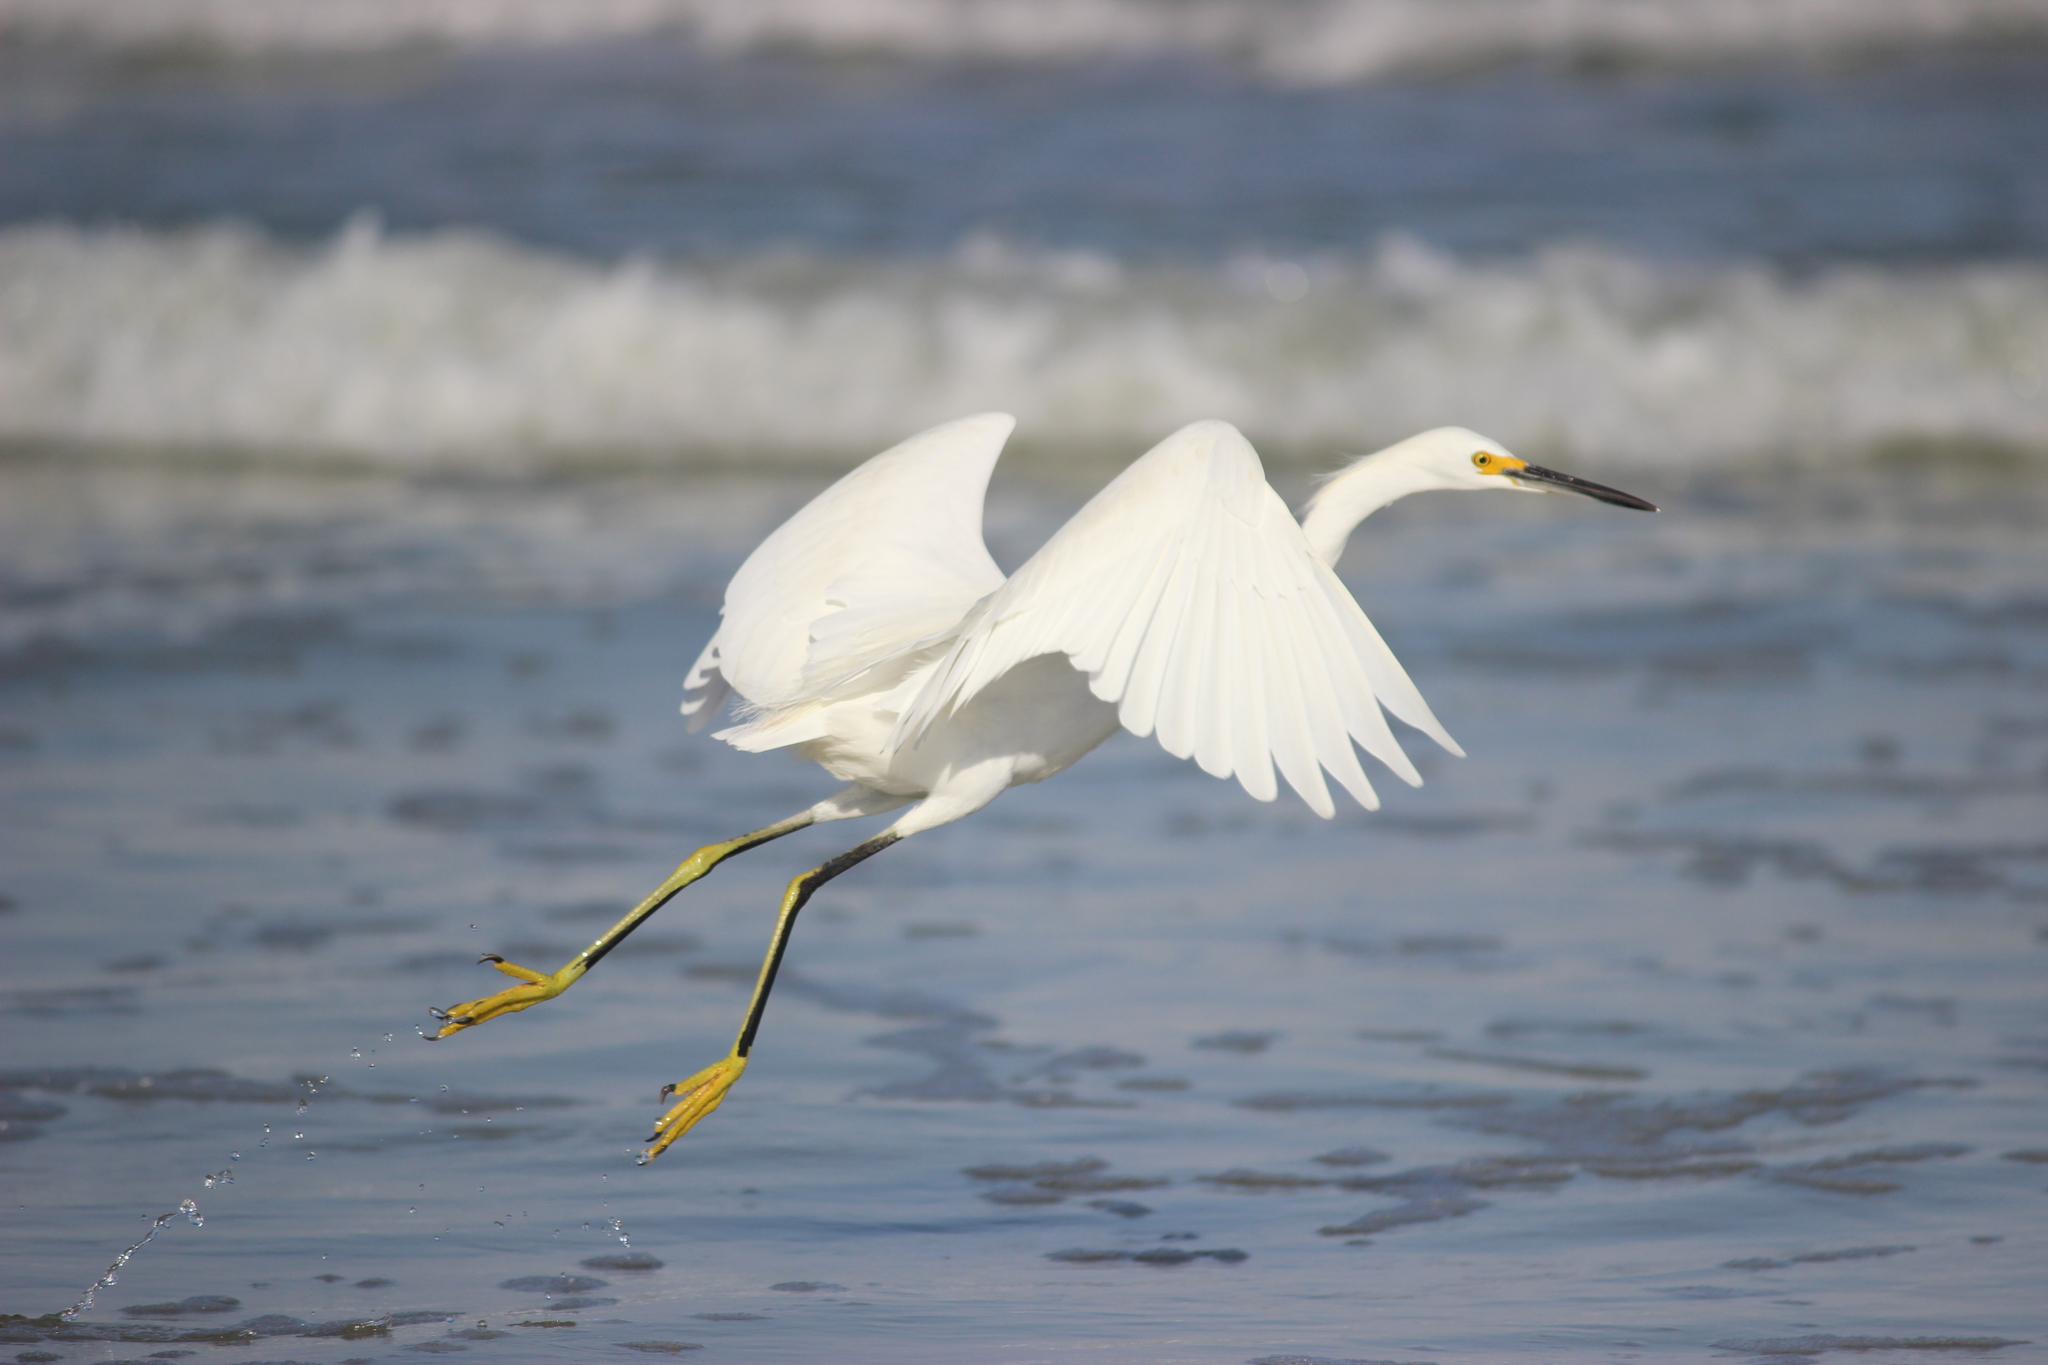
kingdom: Animalia
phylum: Chordata
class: Aves
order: Pelecaniformes
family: Ardeidae
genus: Egretta
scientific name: Egretta thula
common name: Snowy egret
